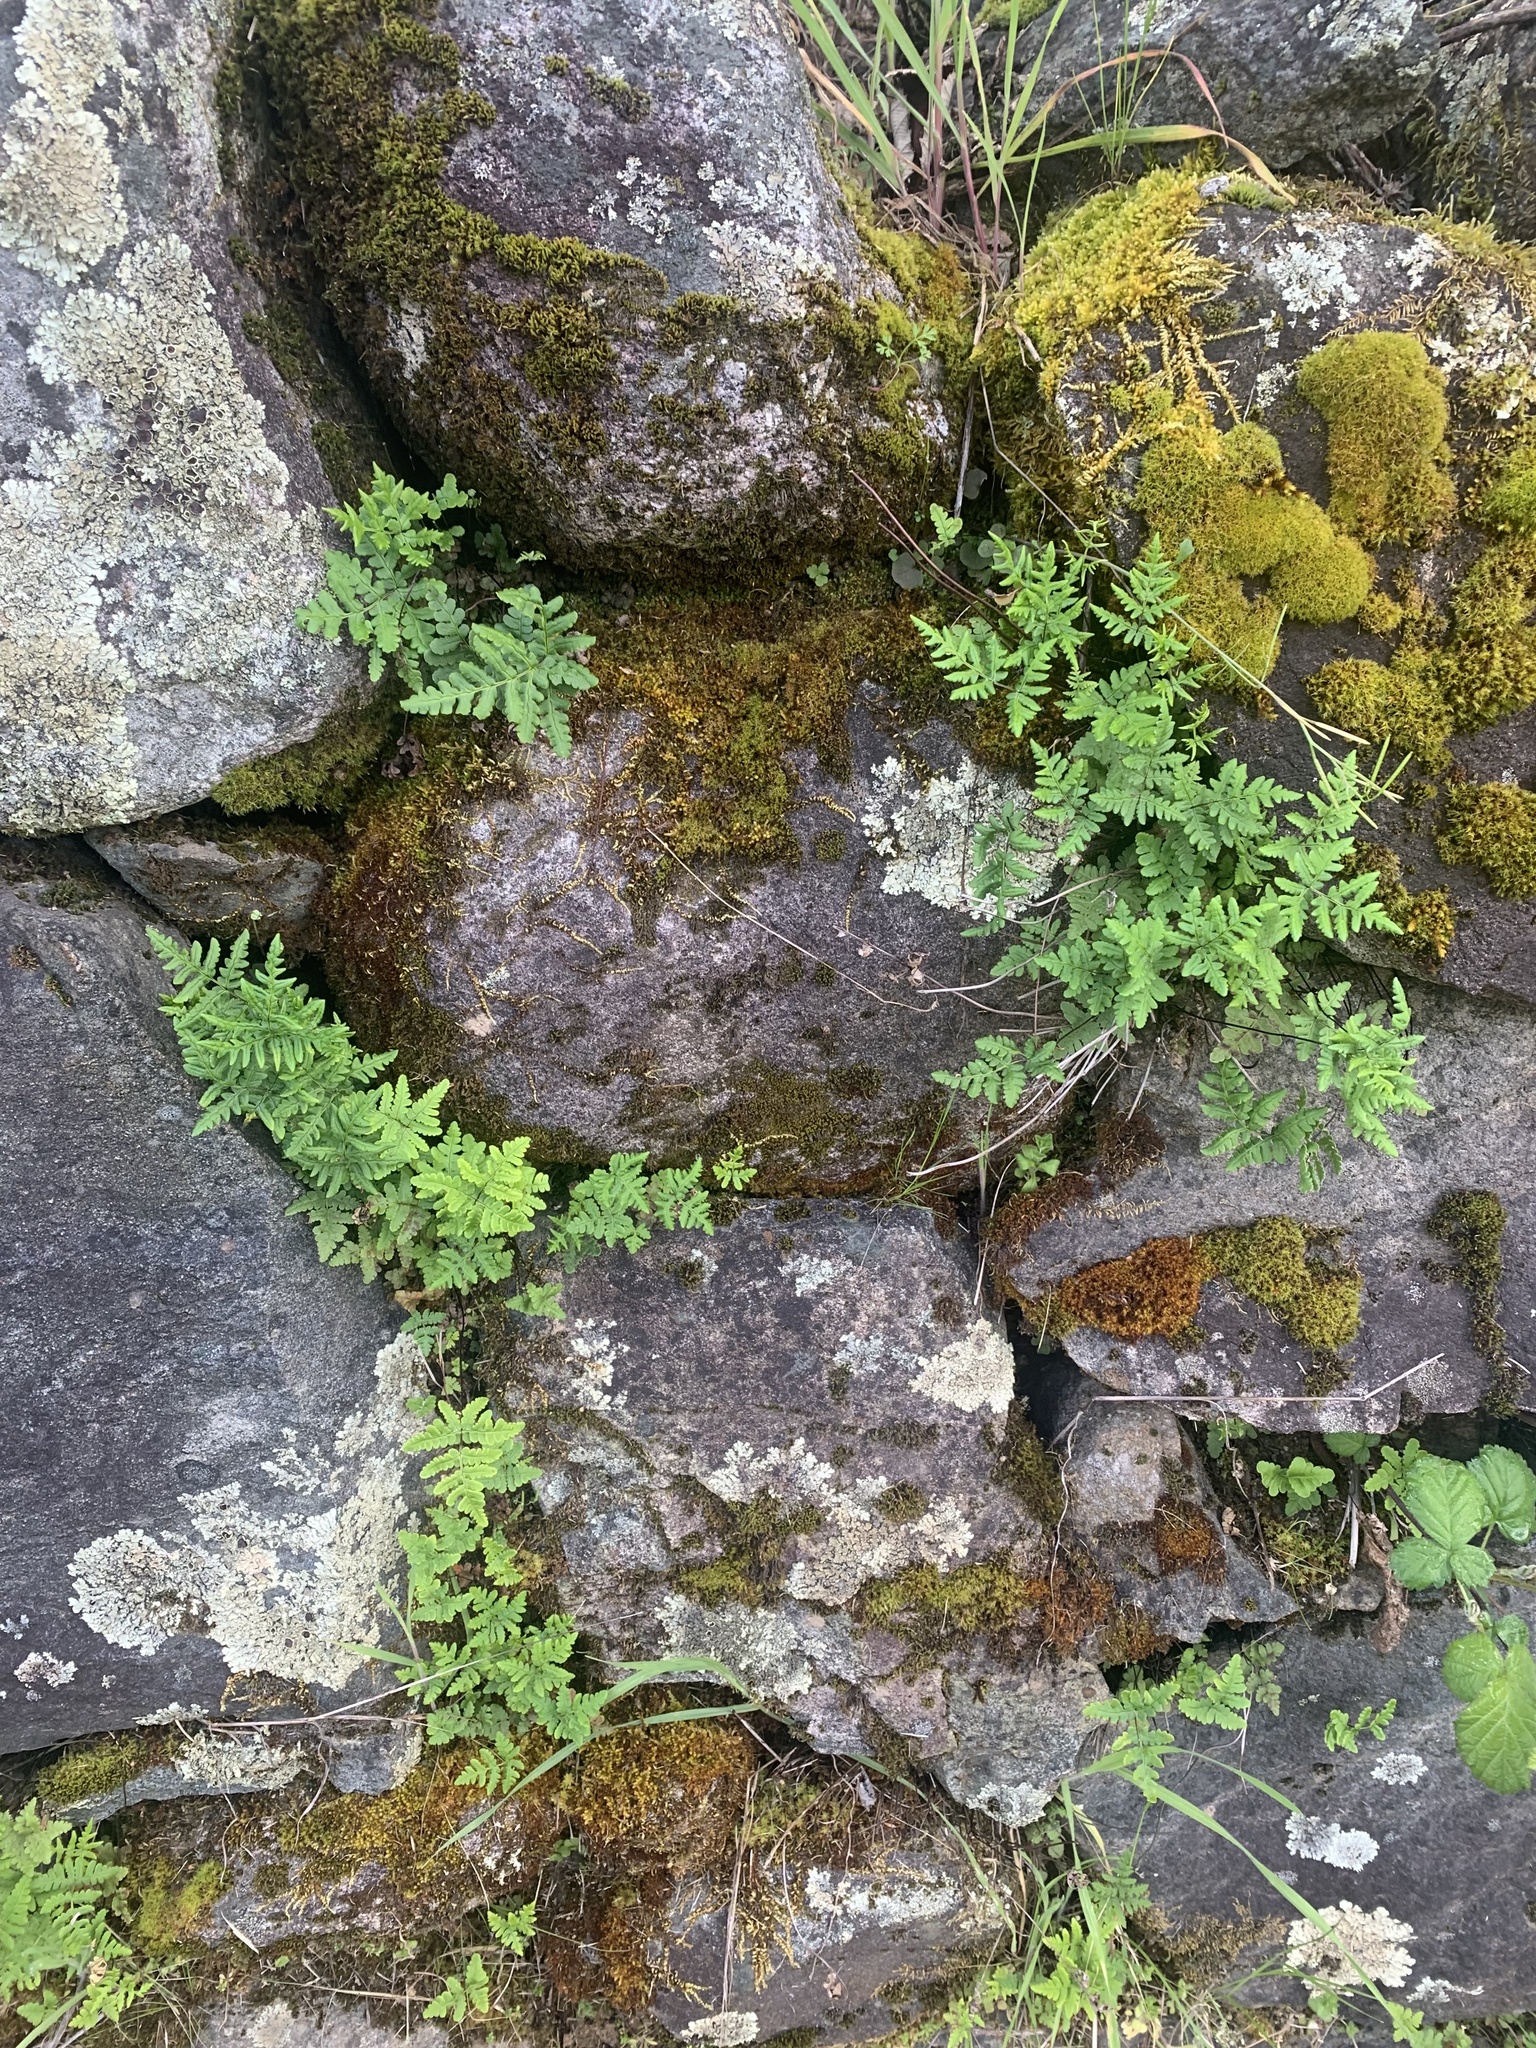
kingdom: Plantae
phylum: Tracheophyta
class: Polypodiopsida
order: Polypodiales
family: Pteridaceae
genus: Pentagramma
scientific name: Pentagramma triangularis
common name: Gold fern
